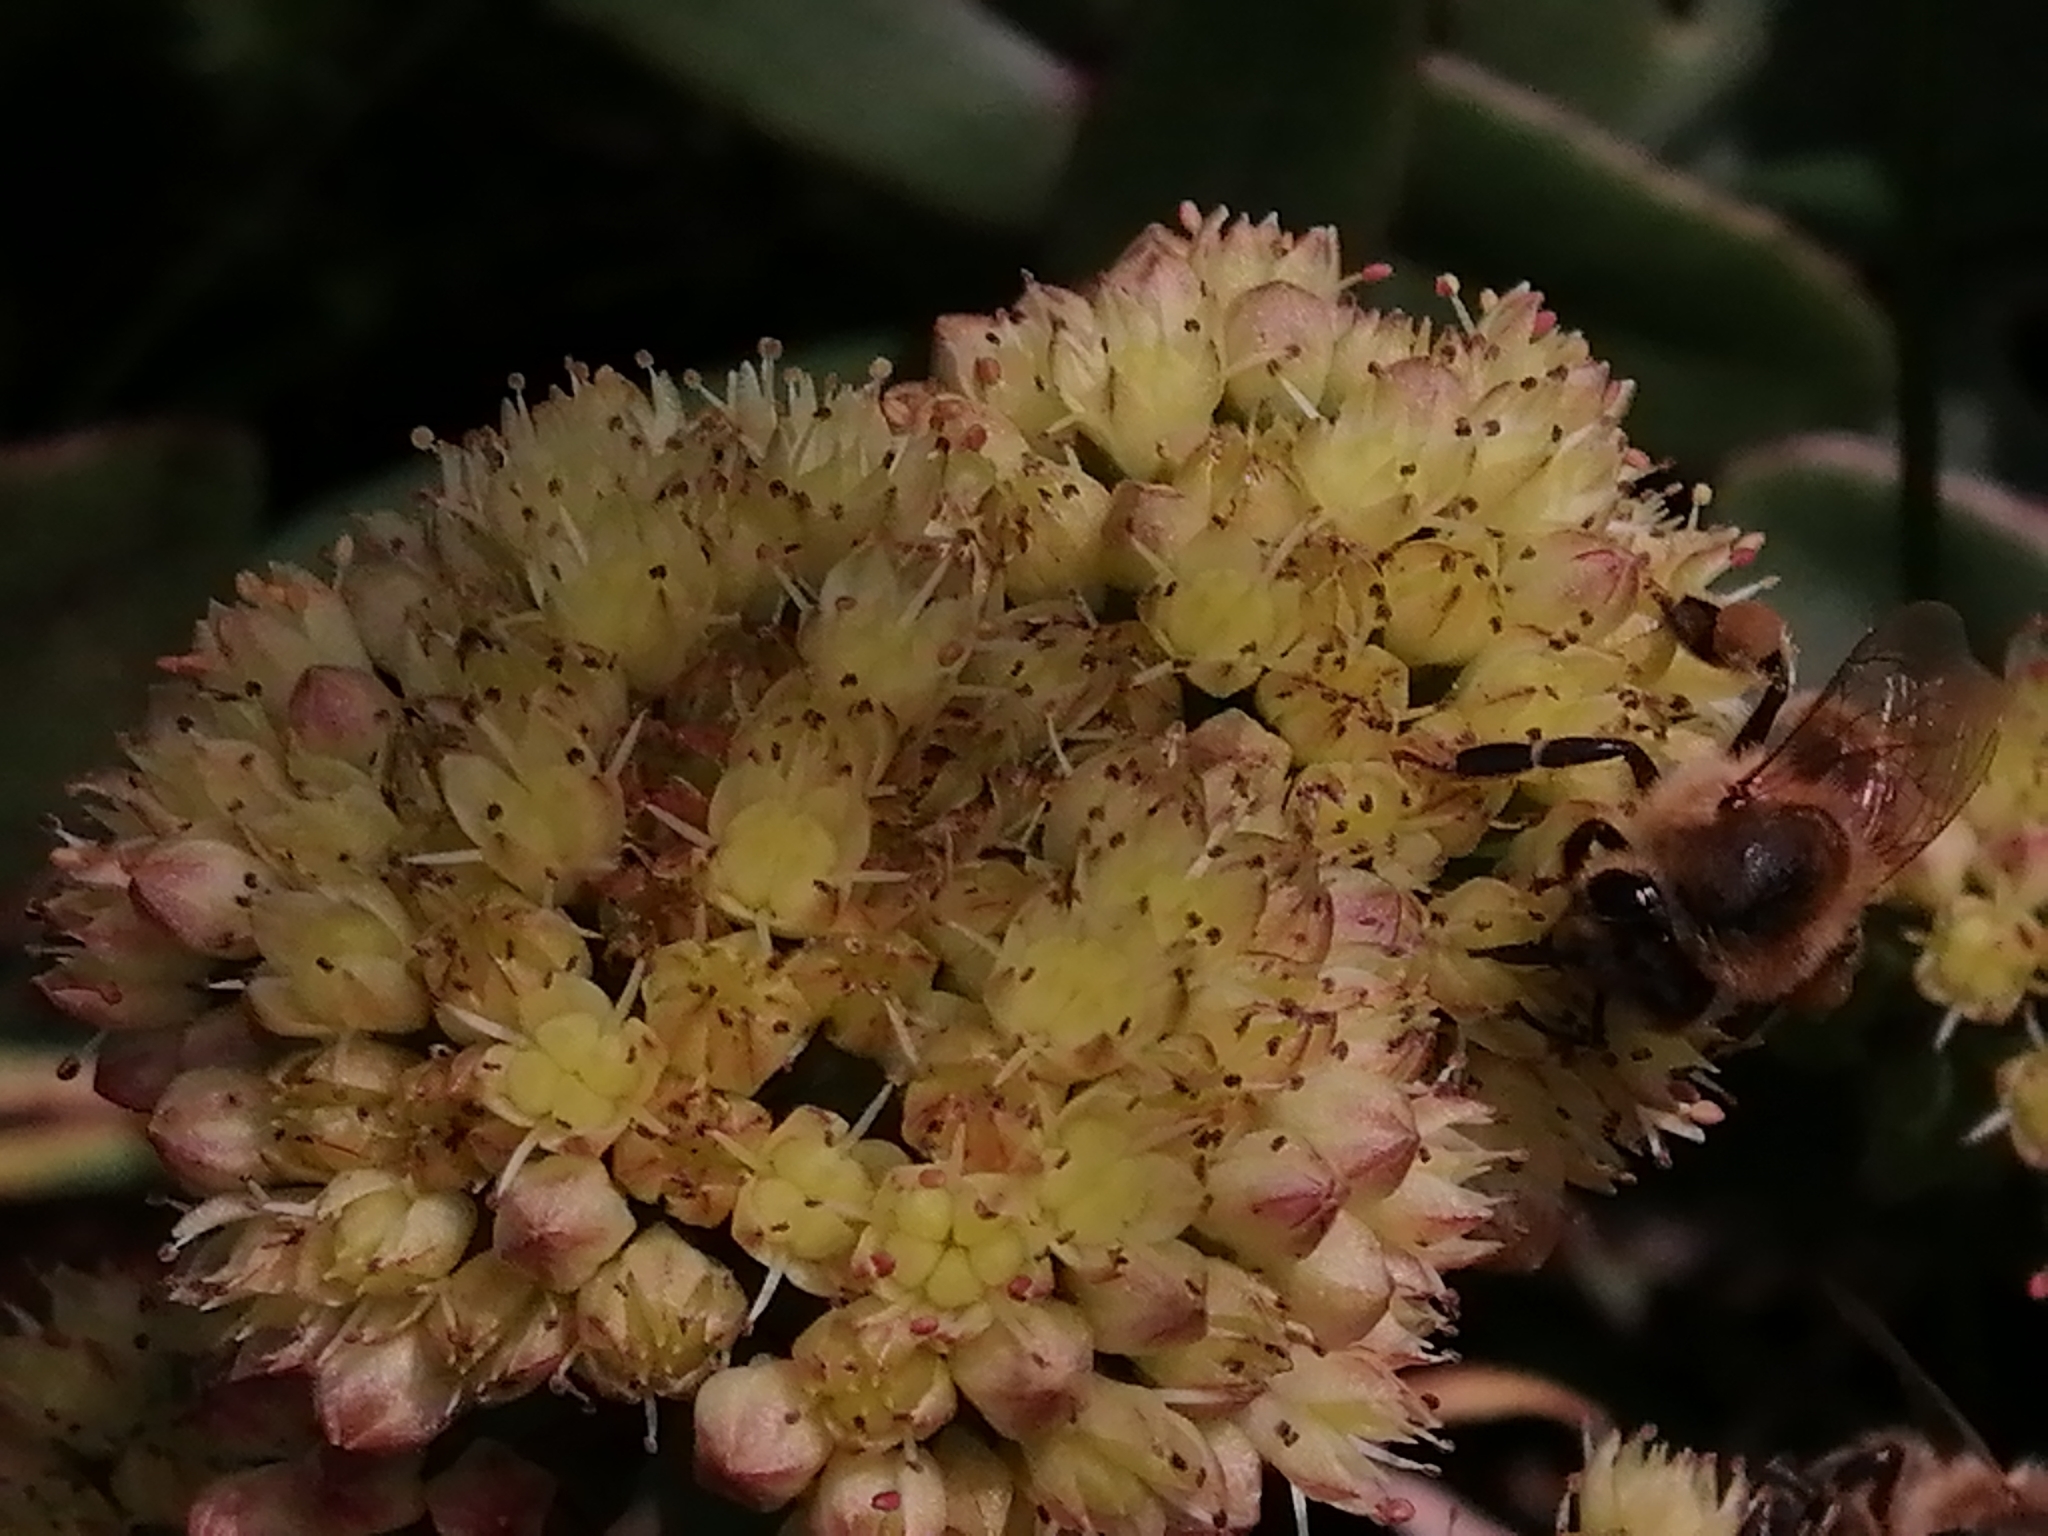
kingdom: Plantae
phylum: Tracheophyta
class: Magnoliopsida
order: Saxifragales
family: Crassulaceae
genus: Hylotelephium
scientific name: Hylotelephium maximum
